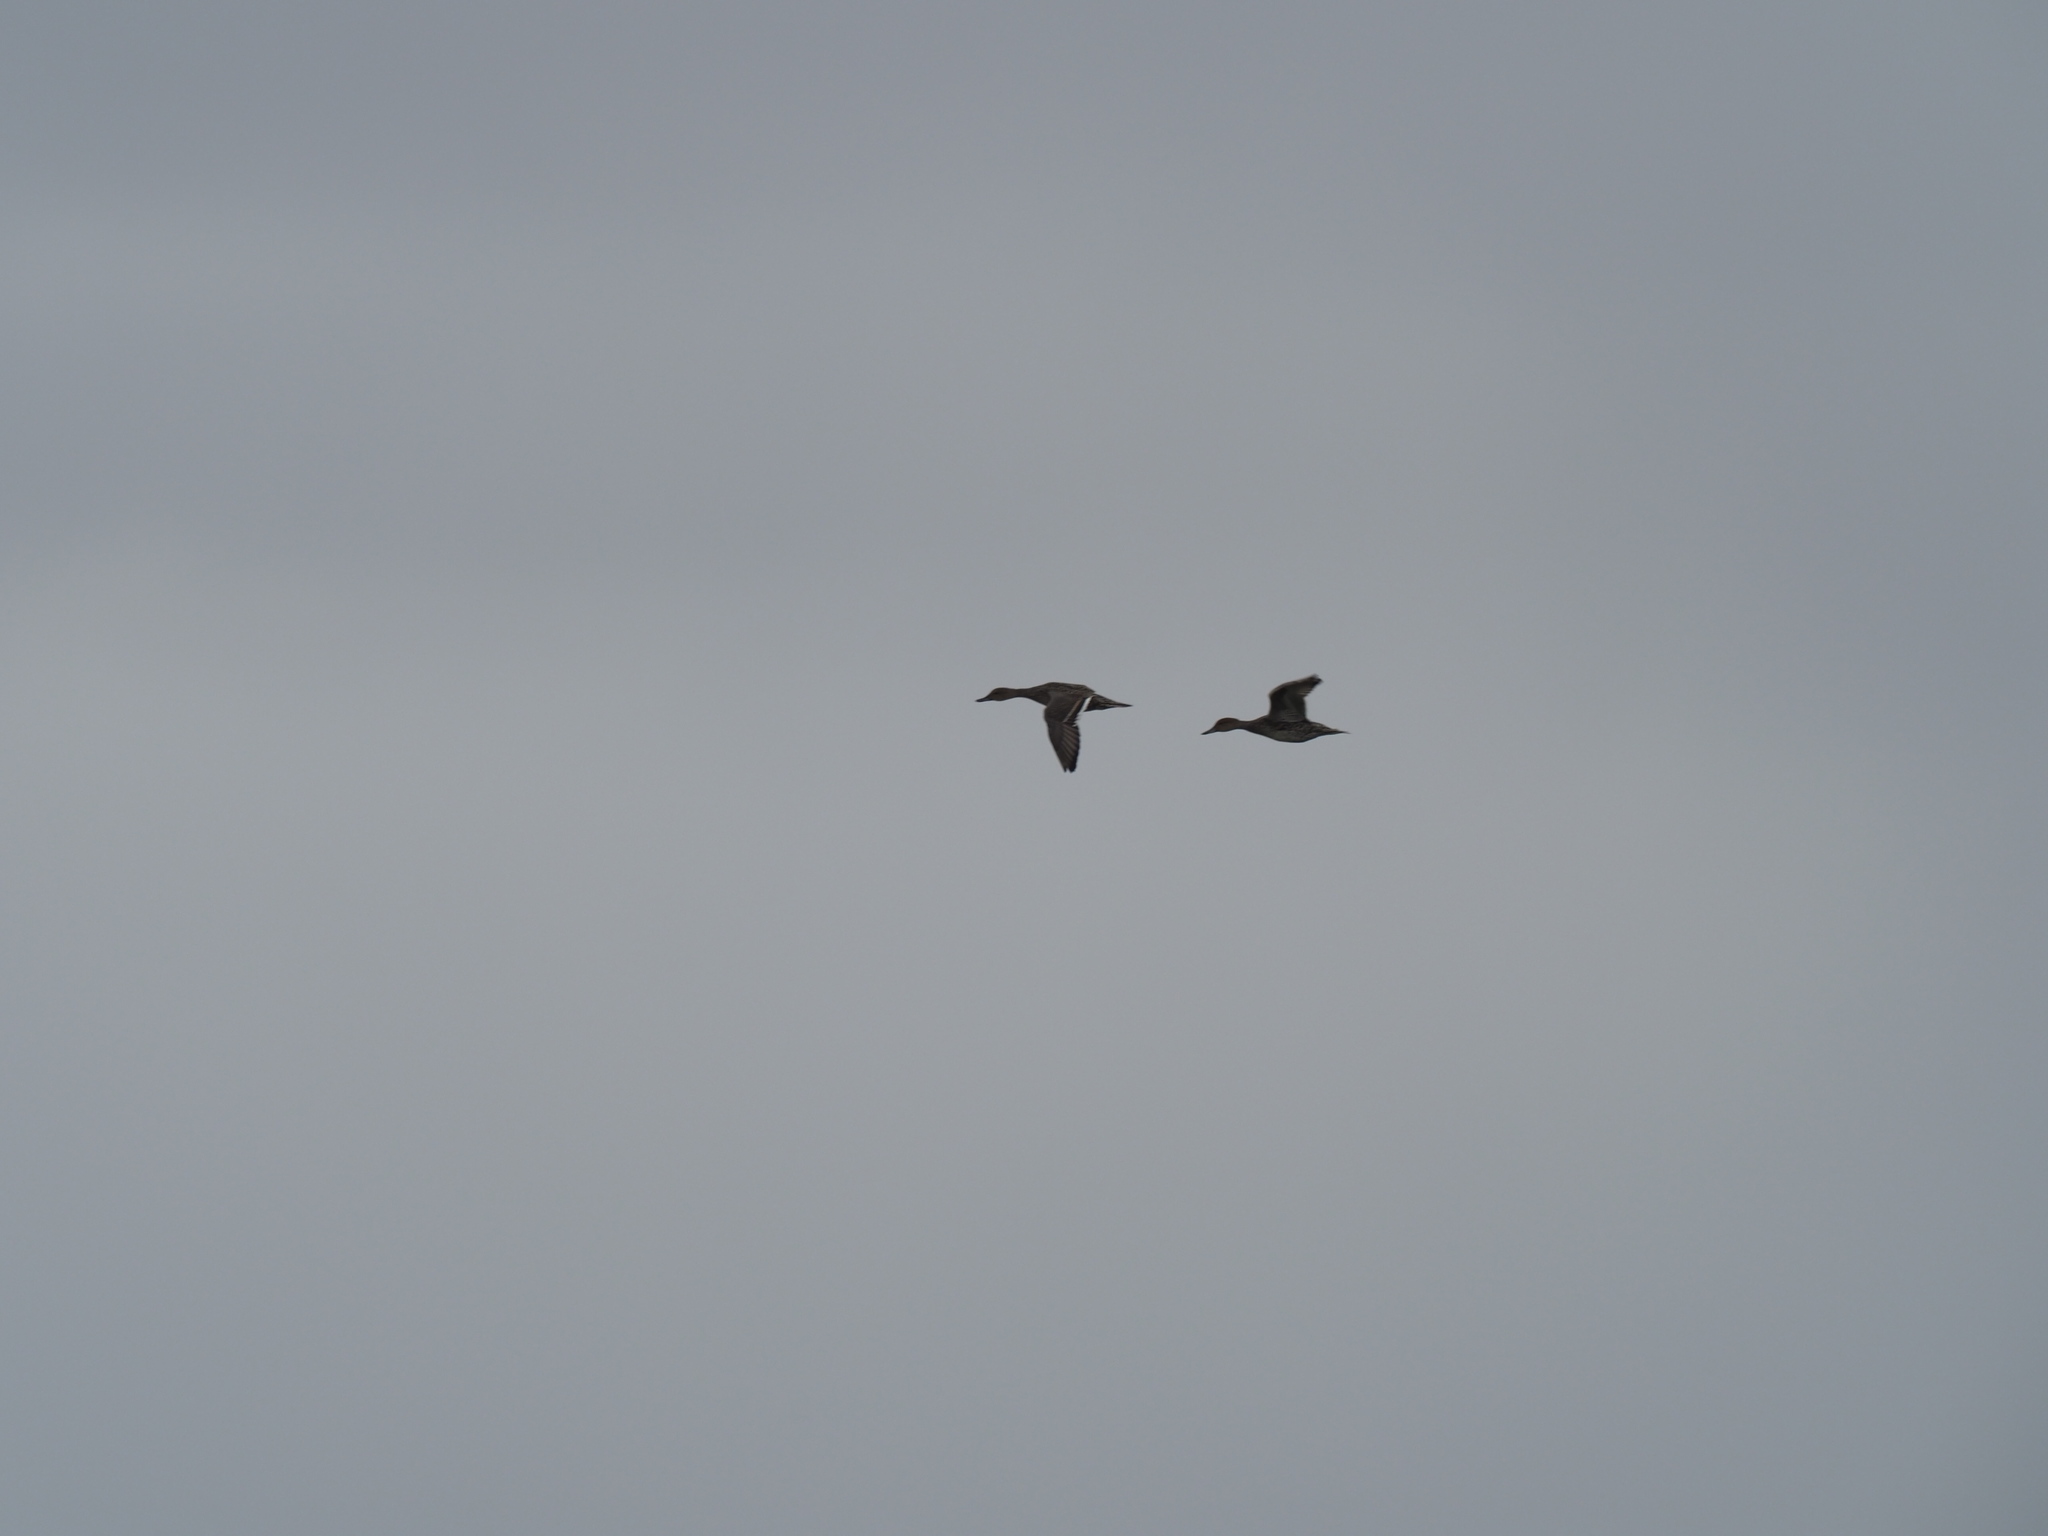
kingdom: Animalia
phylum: Chordata
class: Aves
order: Anseriformes
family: Anatidae
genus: Anas
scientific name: Anas acuta
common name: Northern pintail
